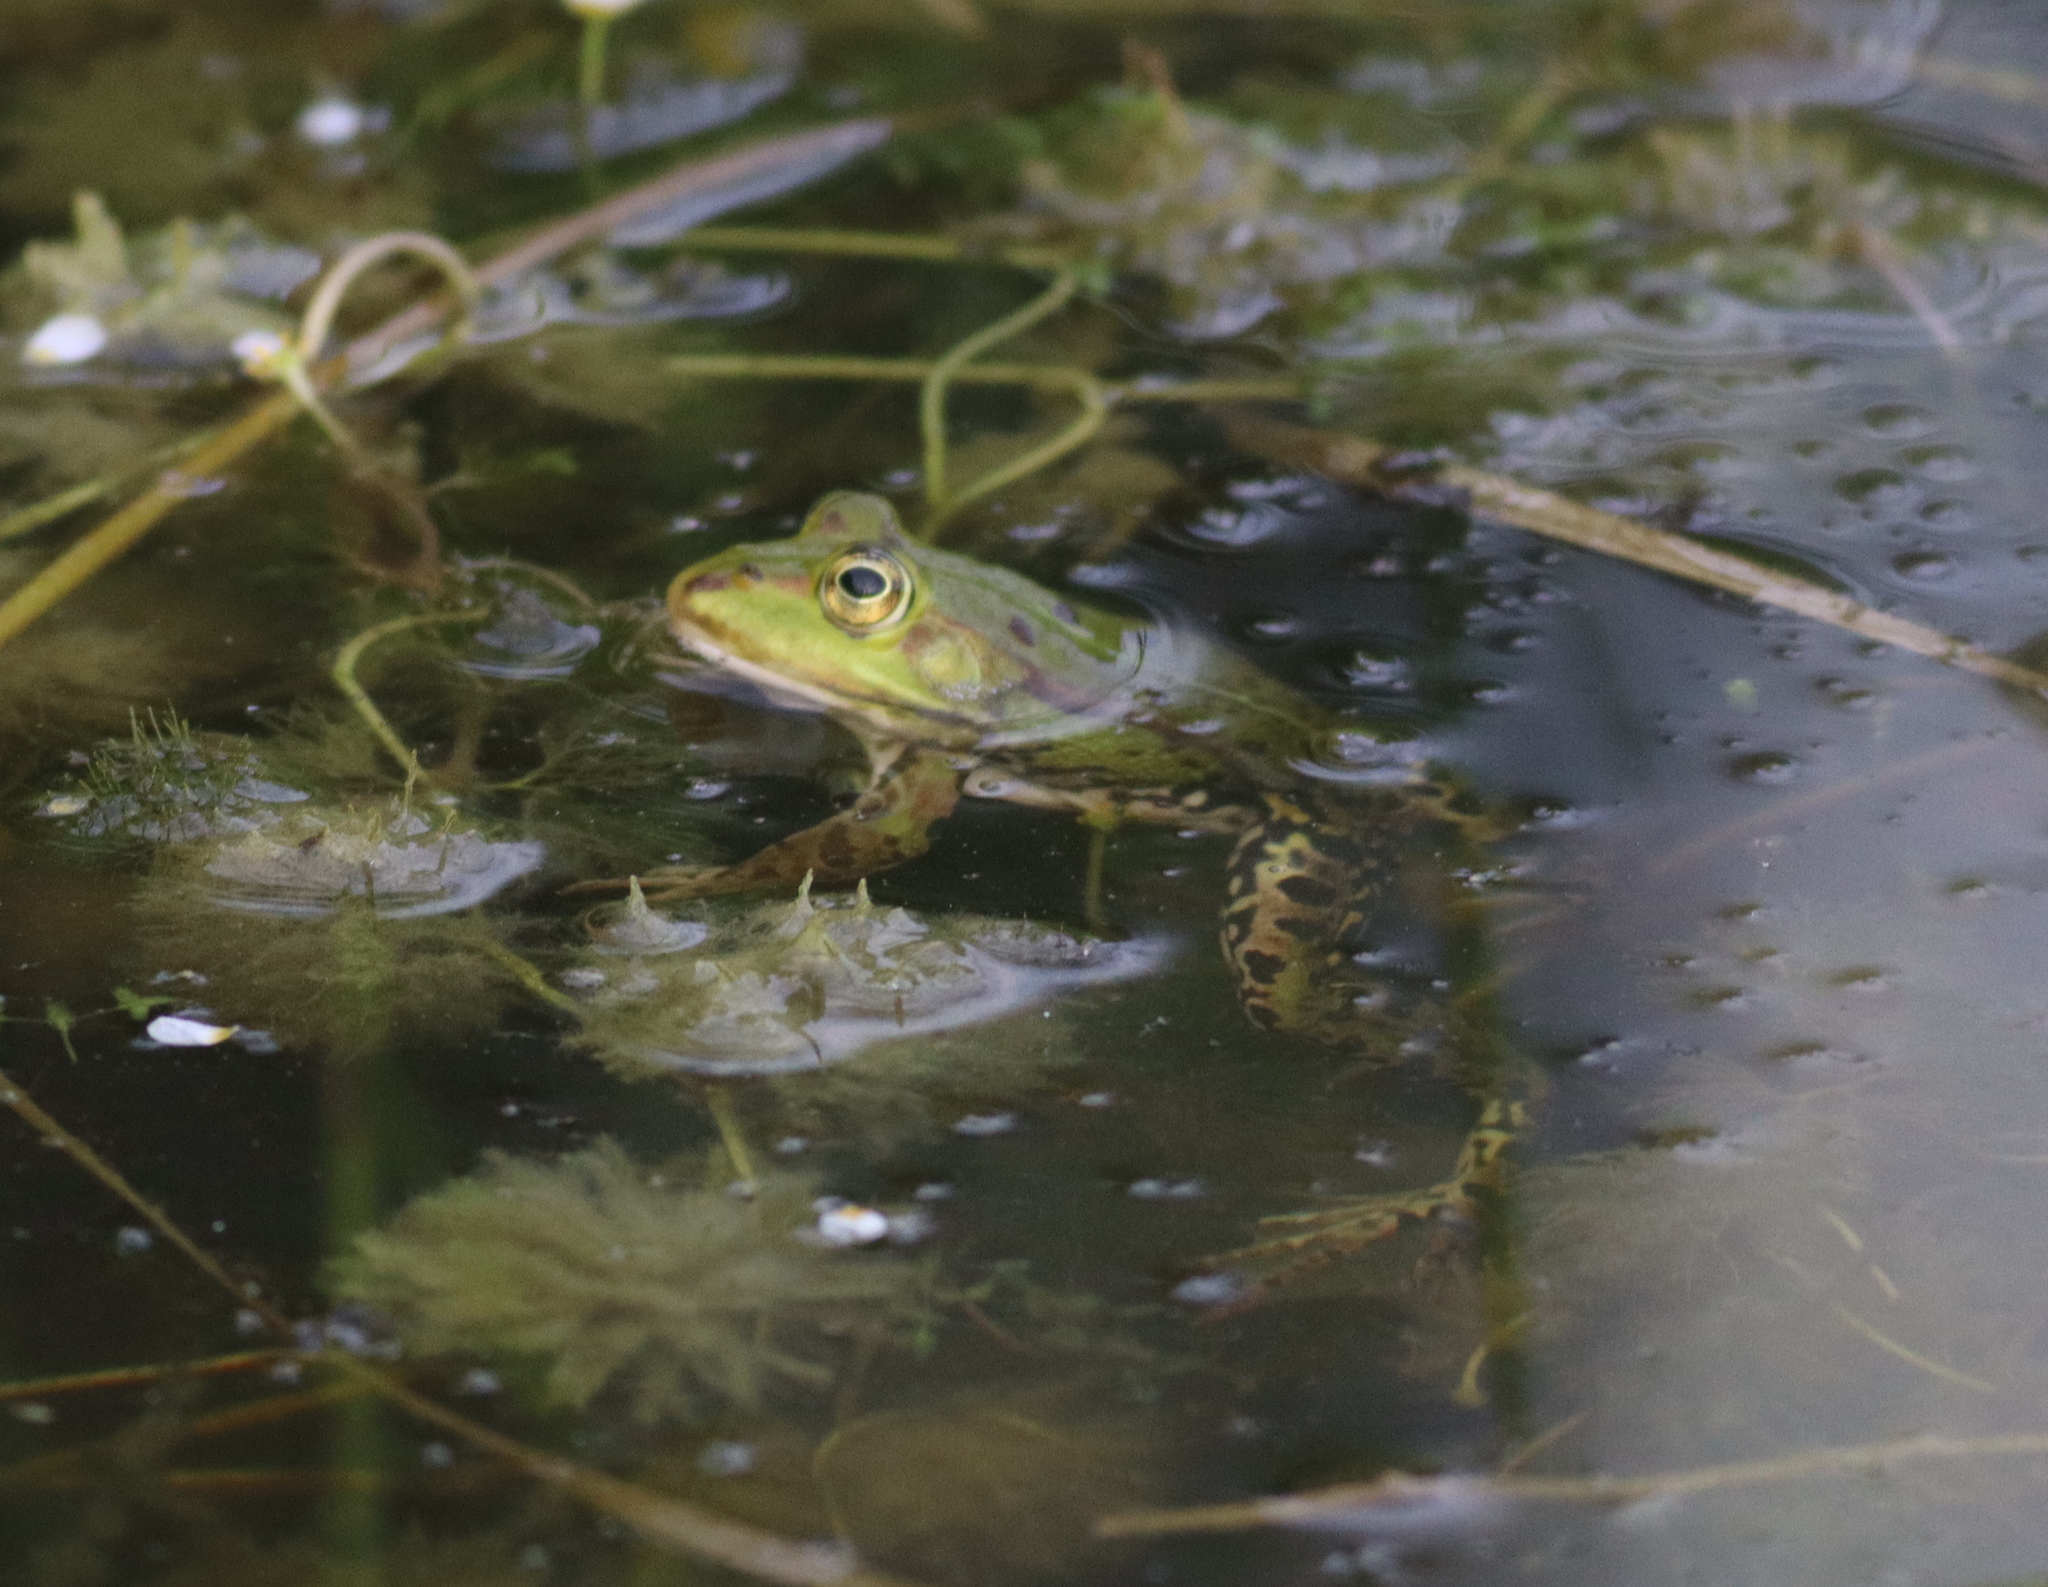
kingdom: Animalia
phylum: Chordata
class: Amphibia
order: Anura
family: Ranidae
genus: Pelophylax
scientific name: Pelophylax
